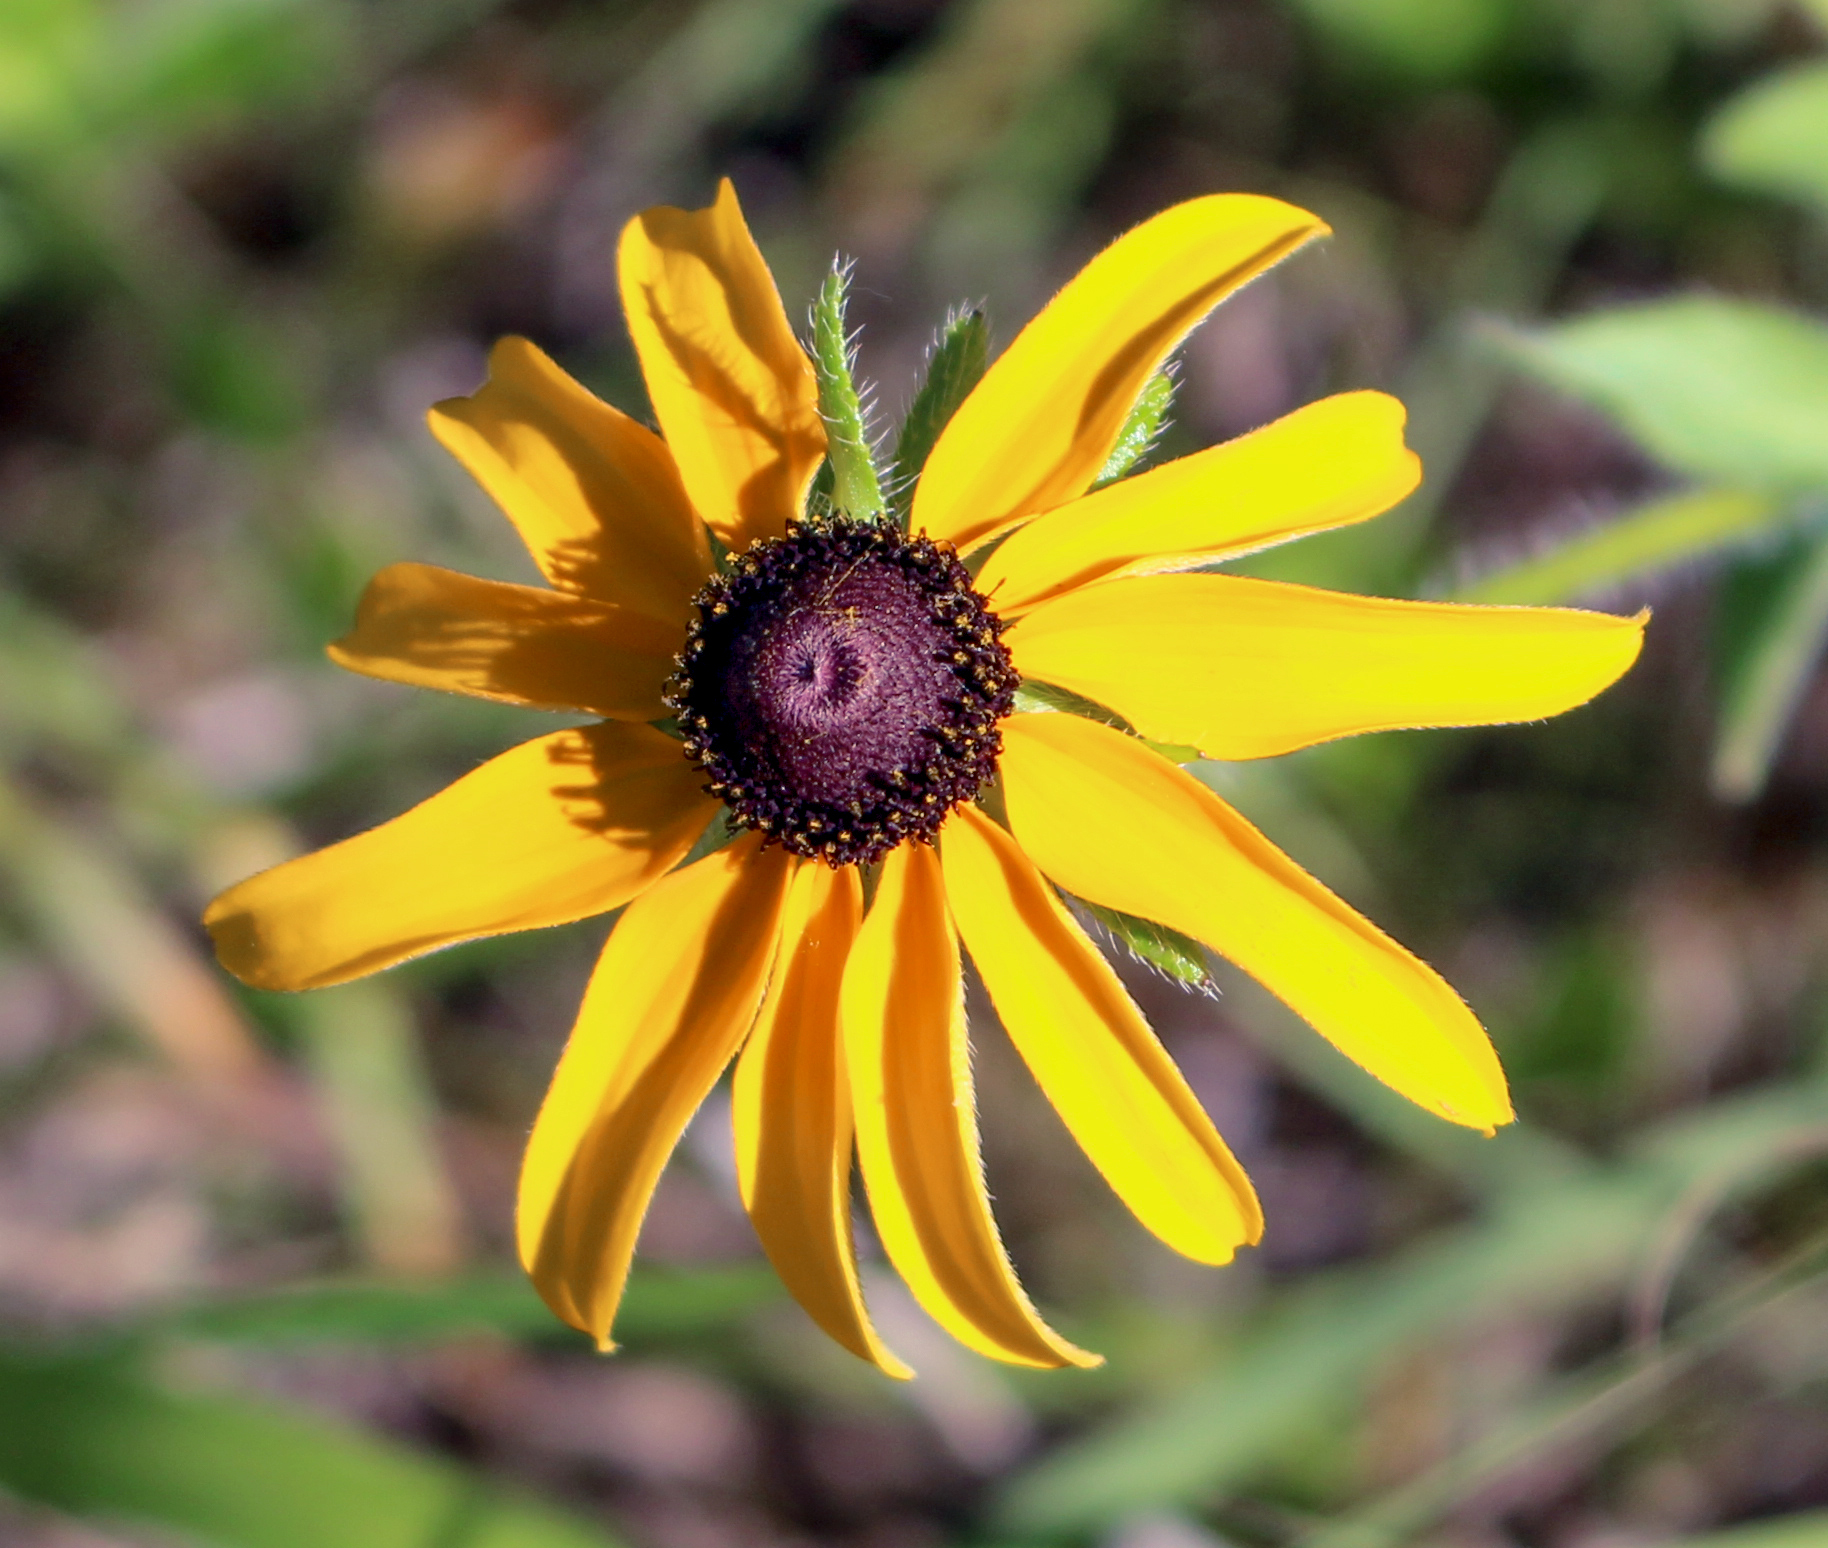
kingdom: Plantae
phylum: Tracheophyta
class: Magnoliopsida
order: Asterales
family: Asteraceae
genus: Rudbeckia
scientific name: Rudbeckia hirta
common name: Black-eyed-susan
